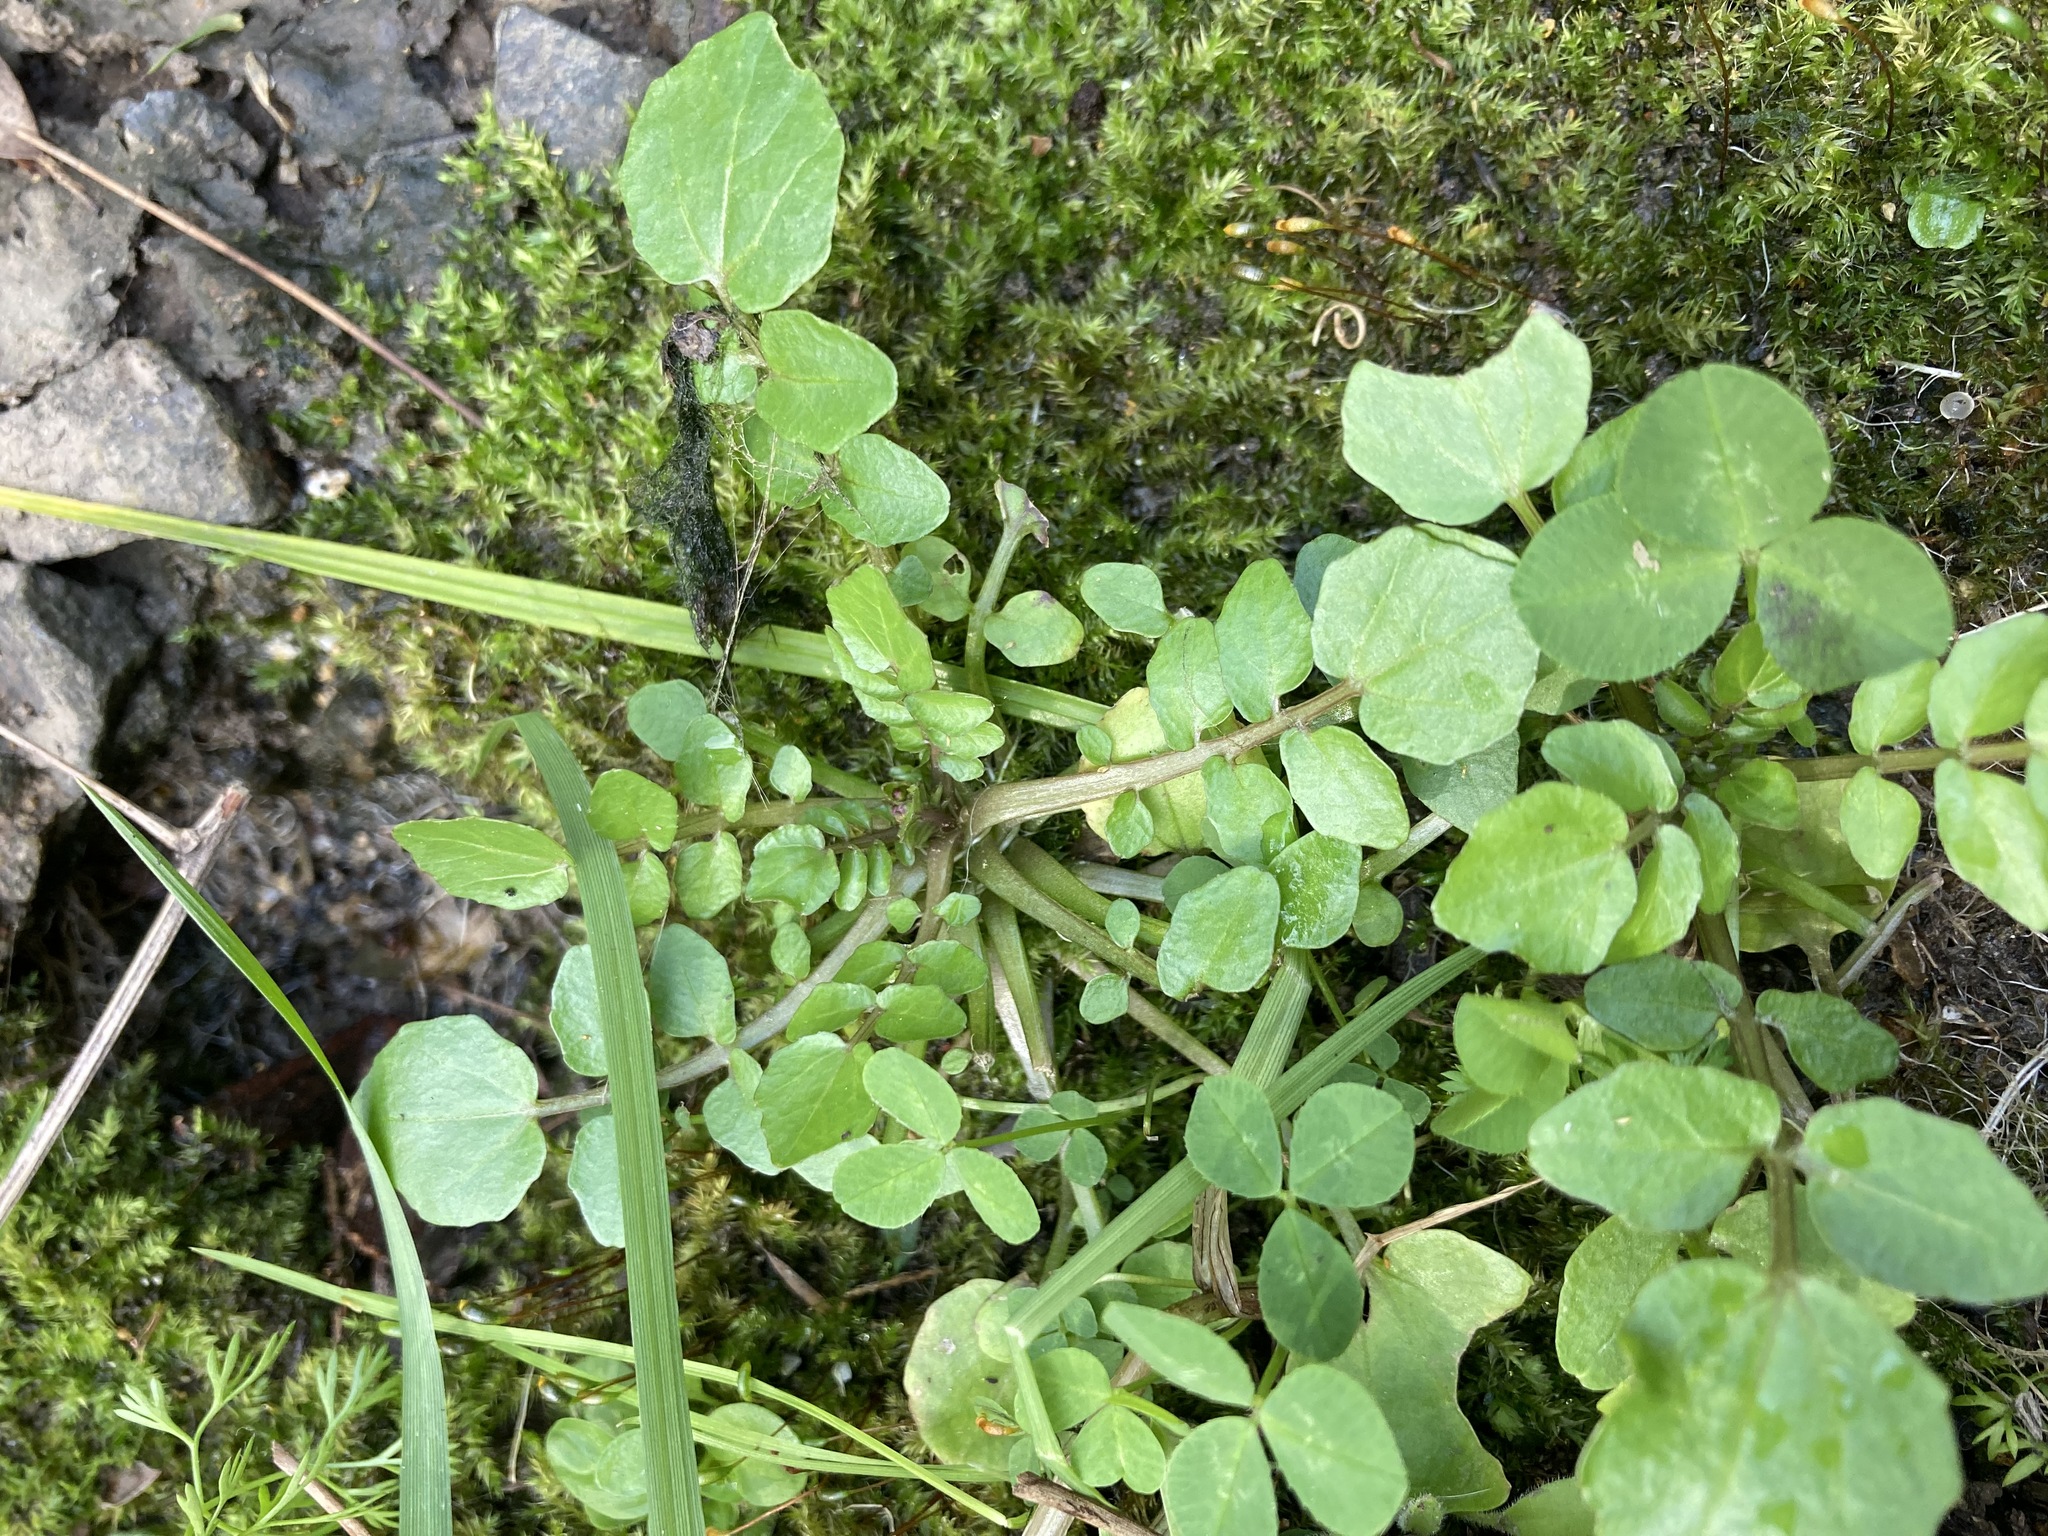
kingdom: Plantae
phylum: Tracheophyta
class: Magnoliopsida
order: Brassicales
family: Brassicaceae
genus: Nasturtium
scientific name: Nasturtium officinale
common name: Watercress
